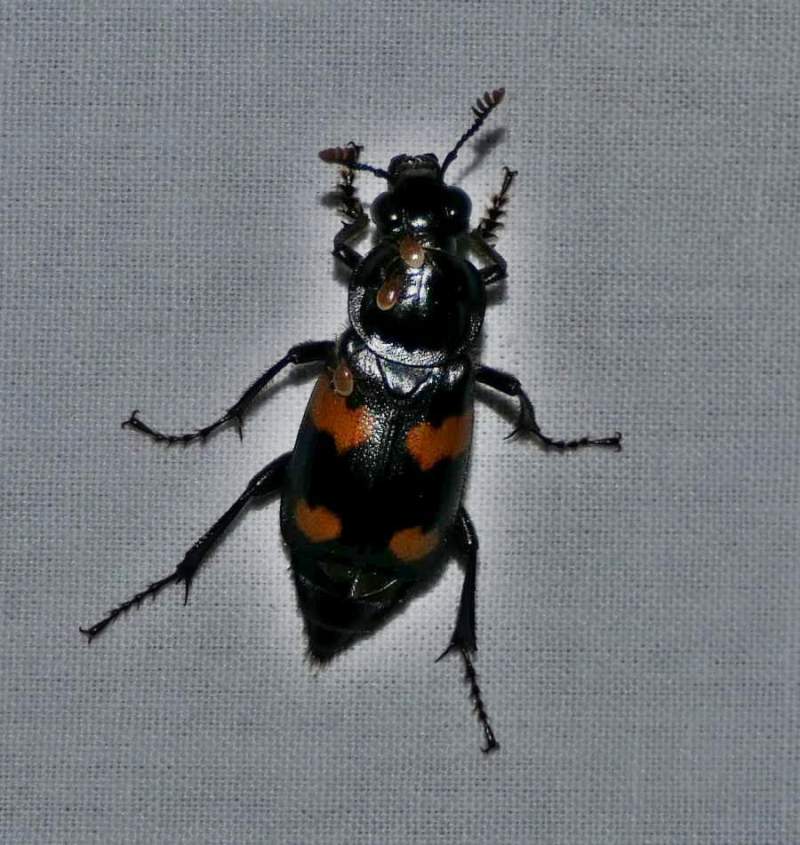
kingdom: Animalia
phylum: Arthropoda
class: Insecta
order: Coleoptera
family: Staphylinidae
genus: Nicrophorus
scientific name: Nicrophorus orbicollis
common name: Roundneck sexton beetle
